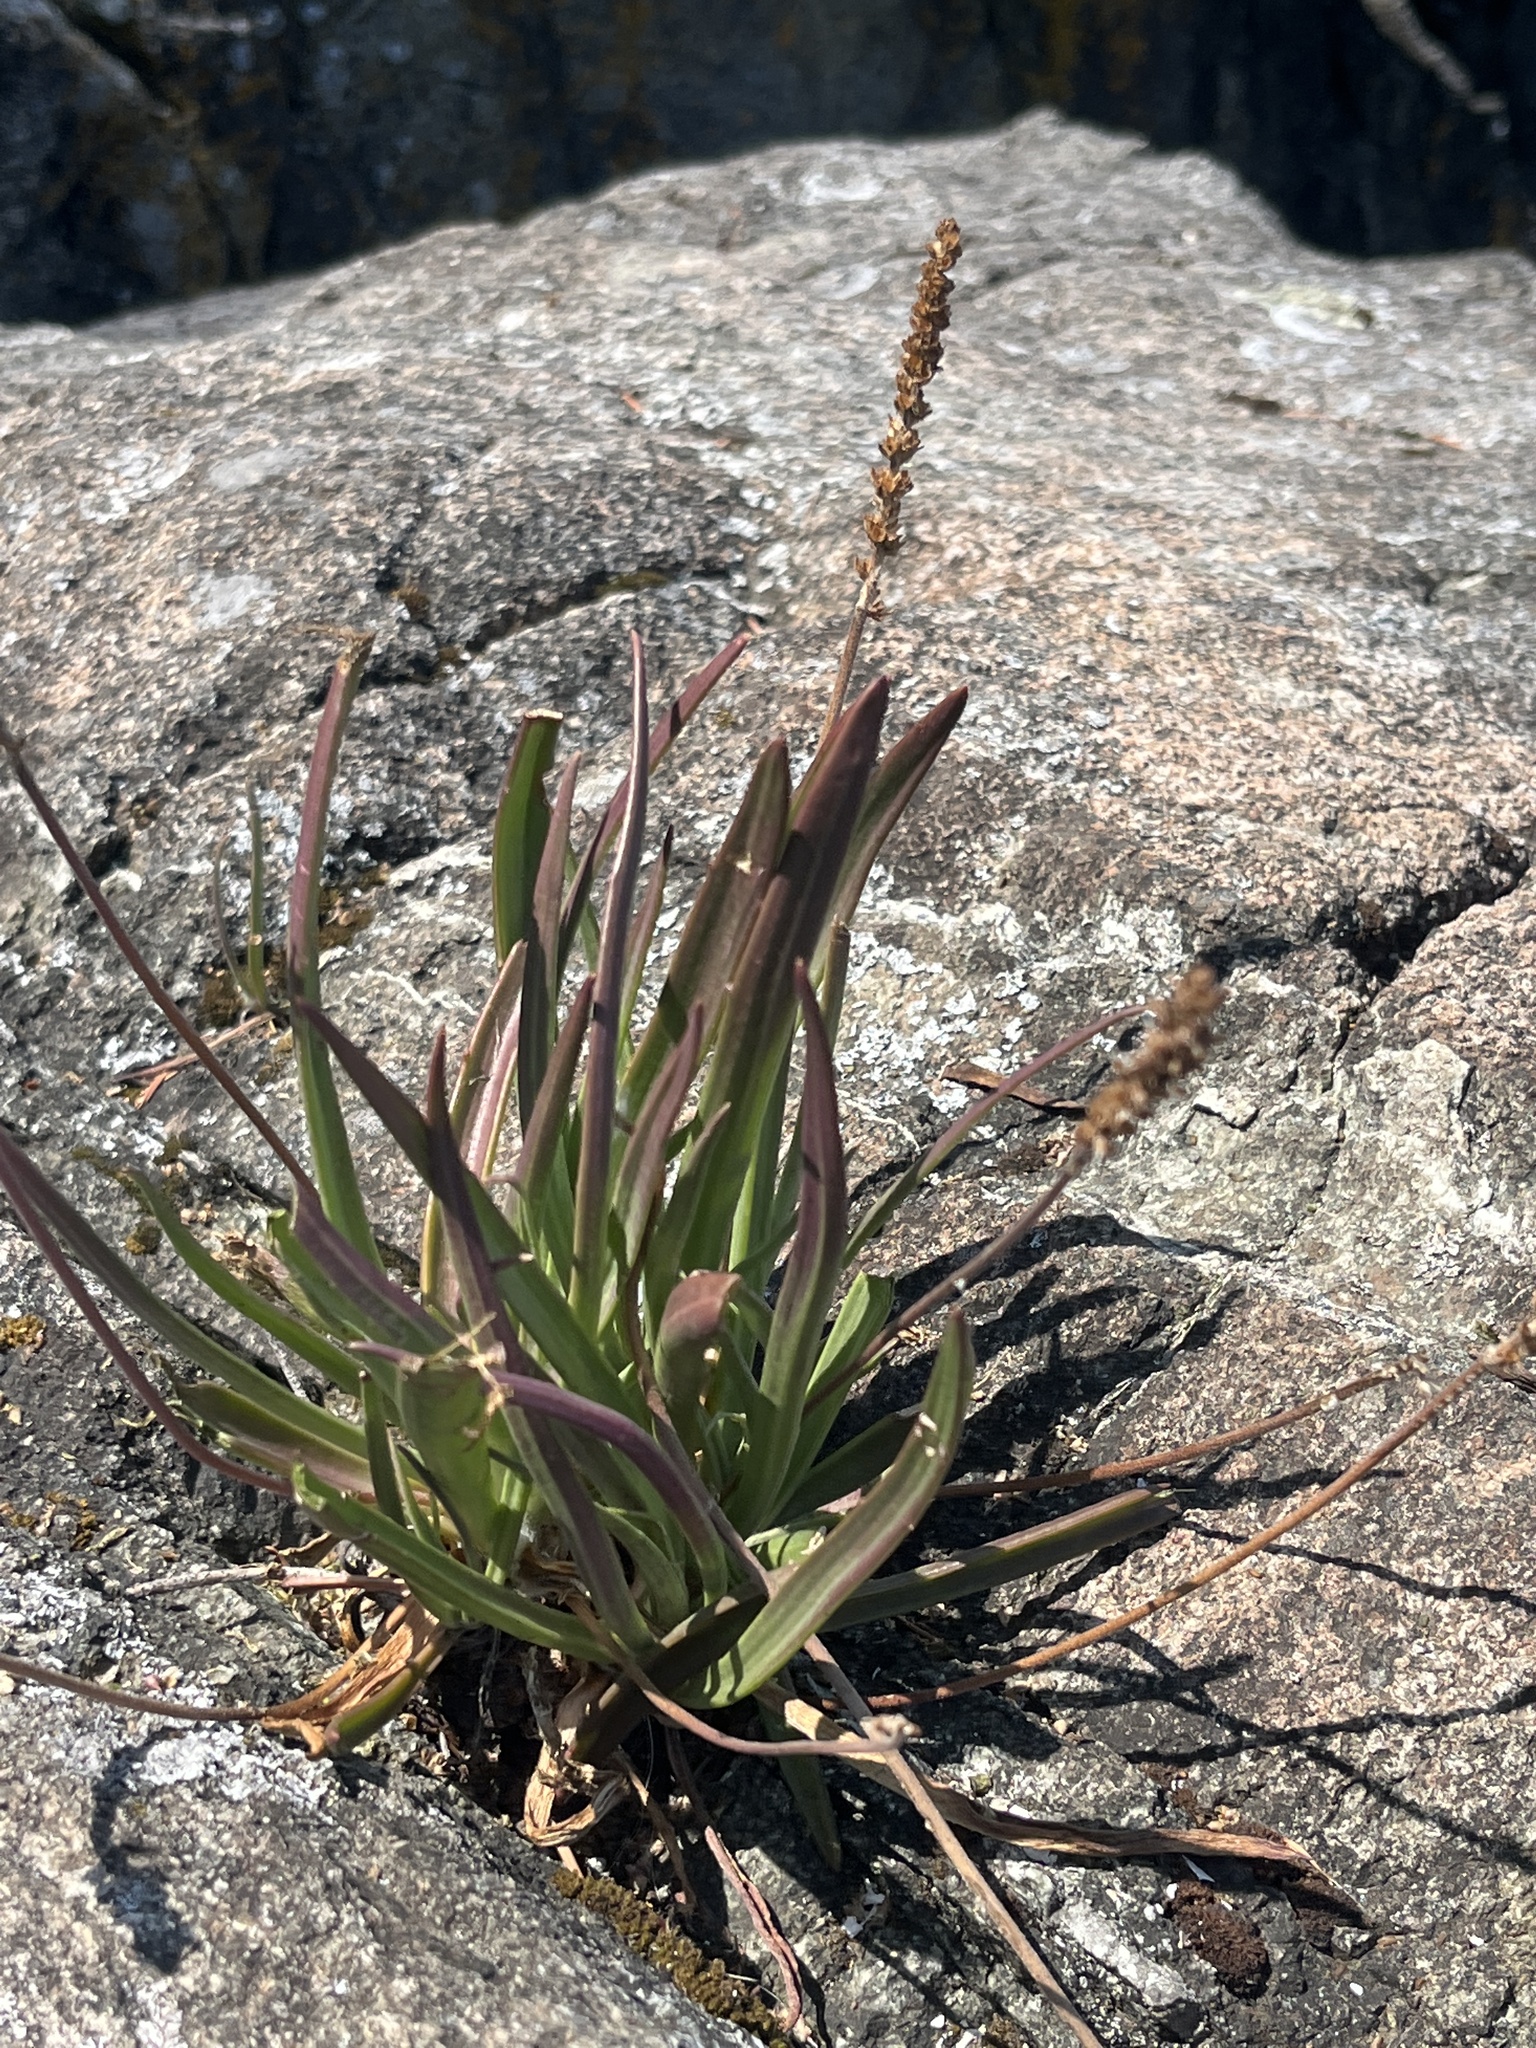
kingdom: Plantae
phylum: Tracheophyta
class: Magnoliopsida
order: Lamiales
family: Plantaginaceae
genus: Plantago
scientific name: Plantago maritima
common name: Sea plantain
